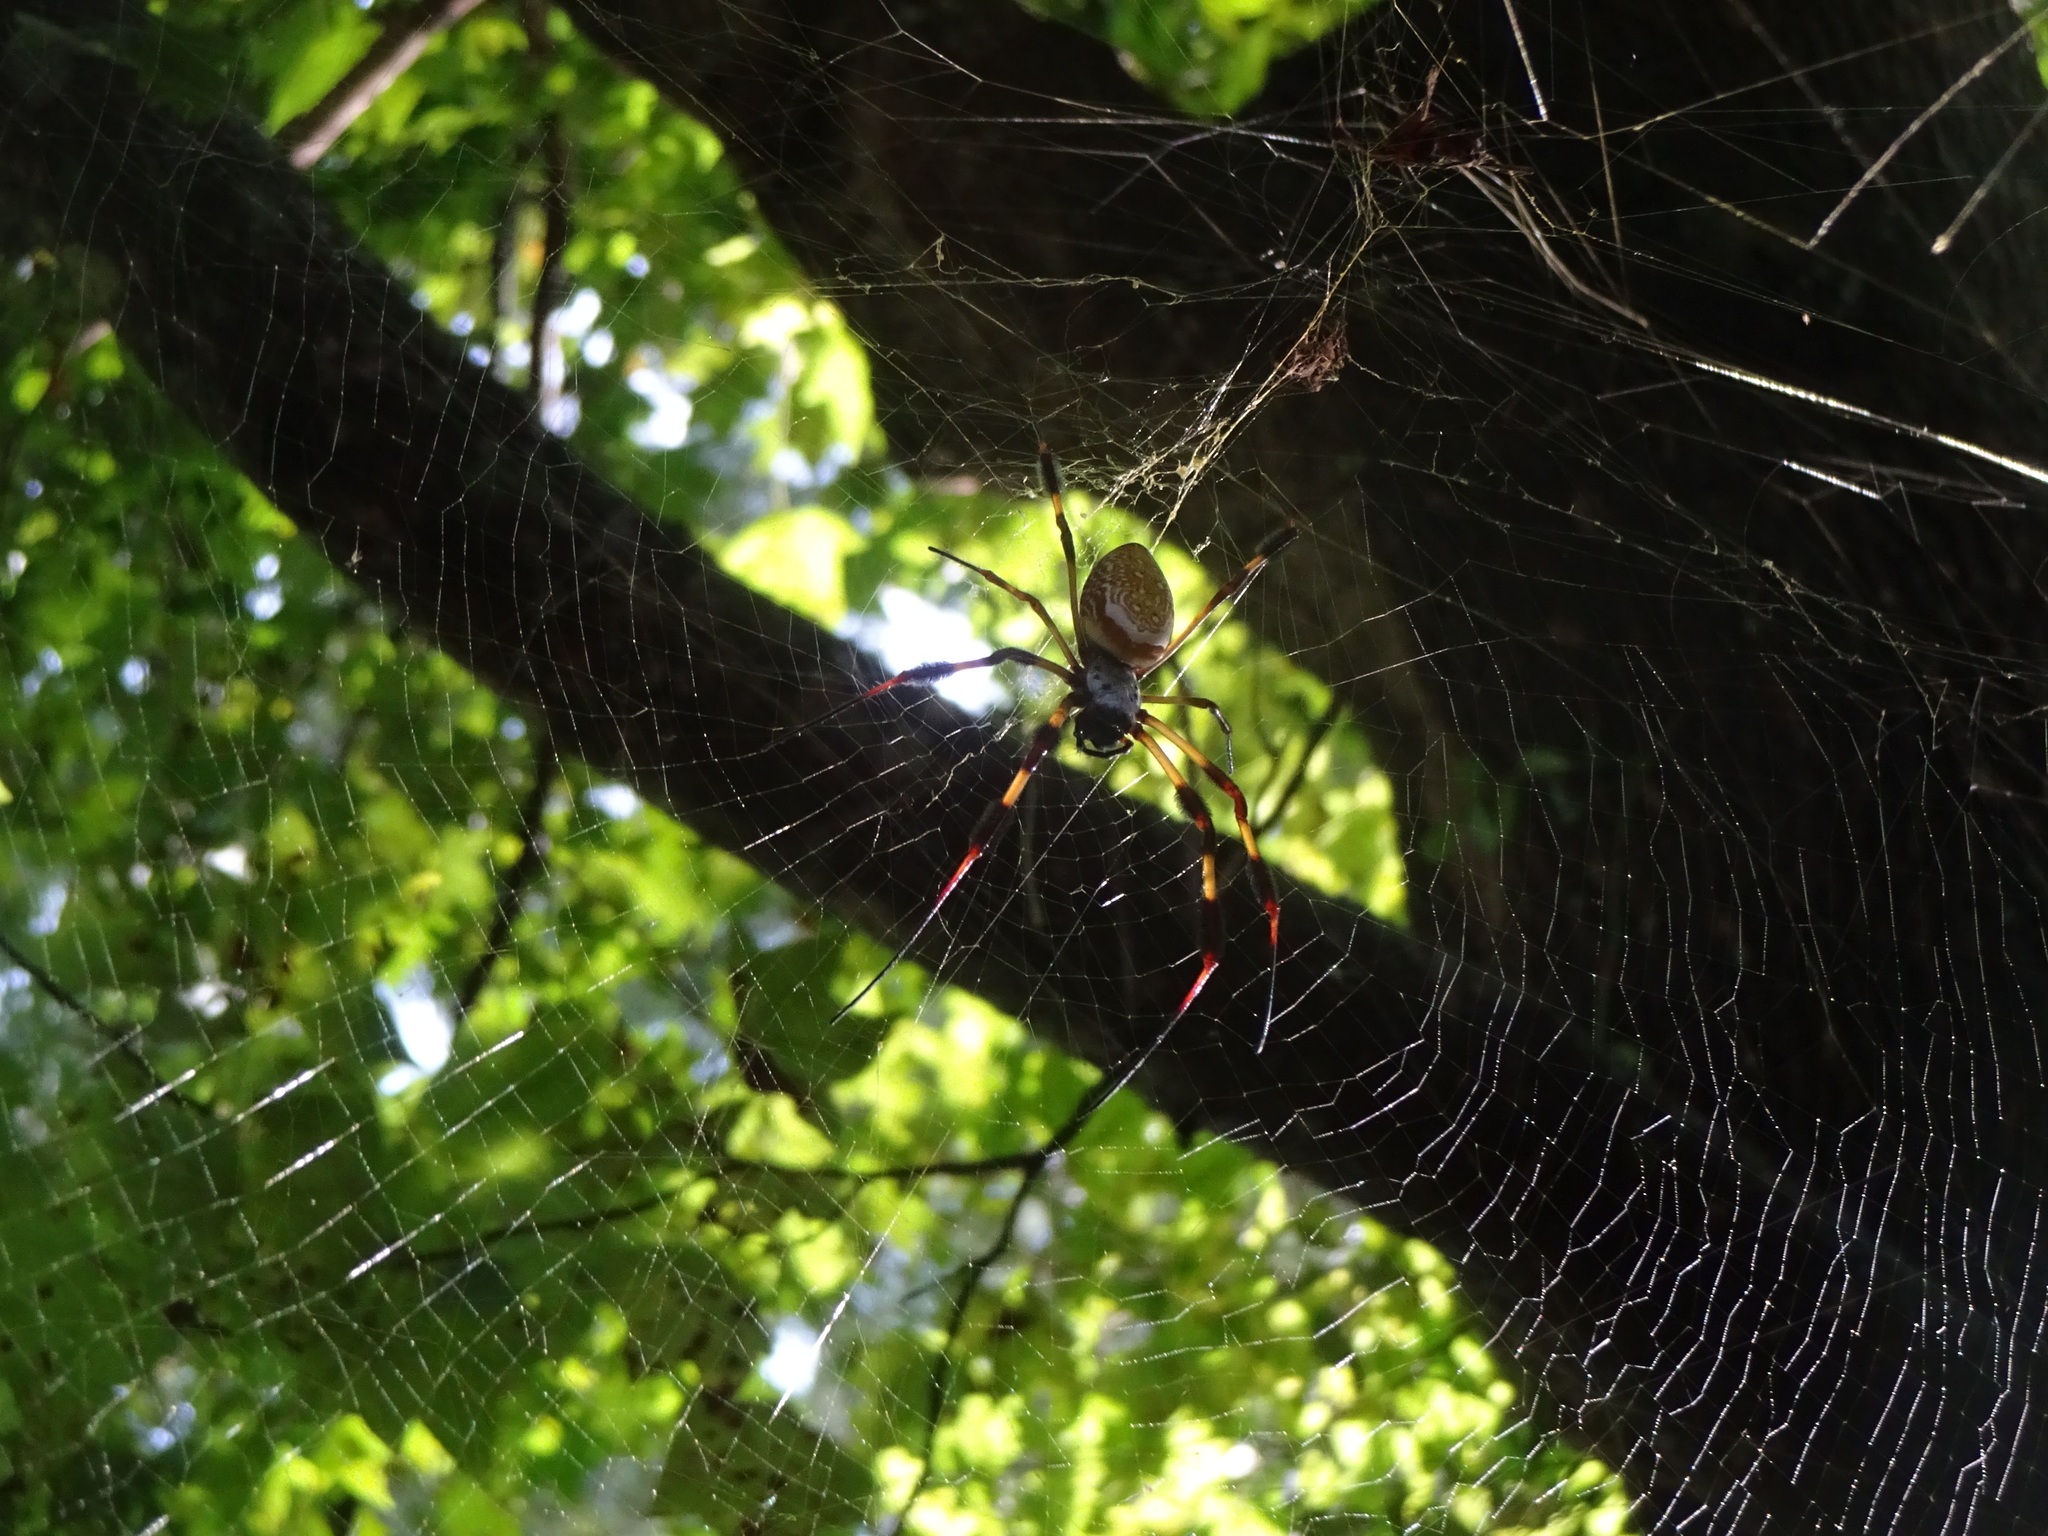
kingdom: Animalia
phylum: Arthropoda
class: Arachnida
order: Araneae
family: Araneidae
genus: Trichonephila
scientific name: Trichonephila clavipes
